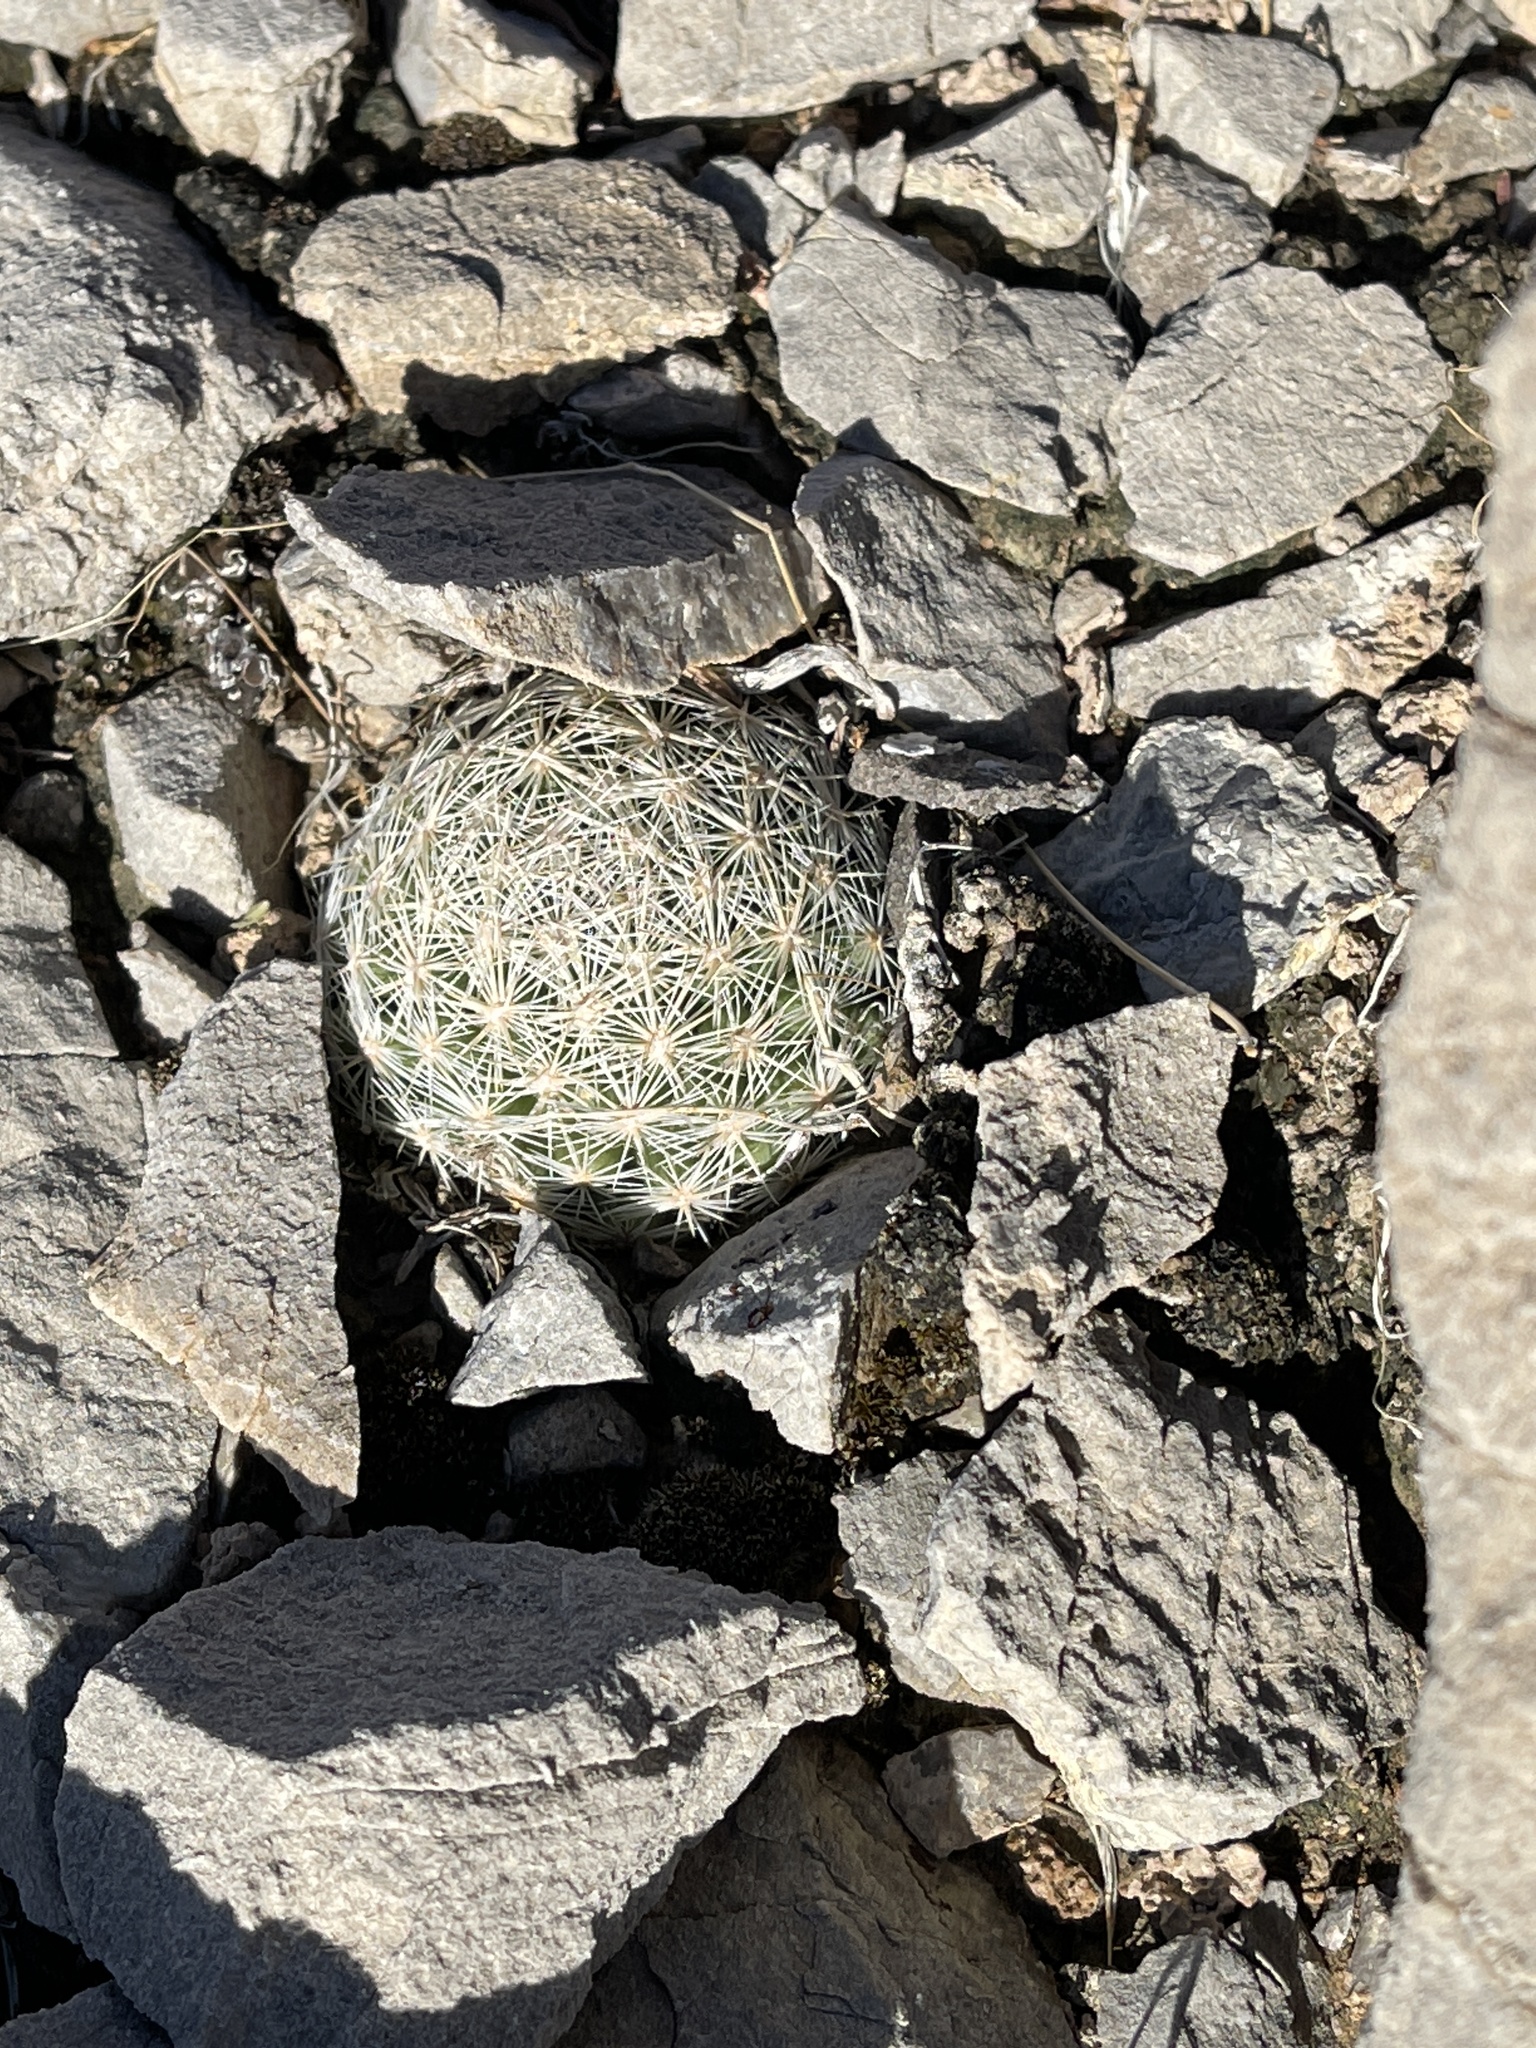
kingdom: Plantae
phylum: Tracheophyta
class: Magnoliopsida
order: Caryophyllales
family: Cactaceae
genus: Pelecyphora
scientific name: Pelecyphora vivipara
